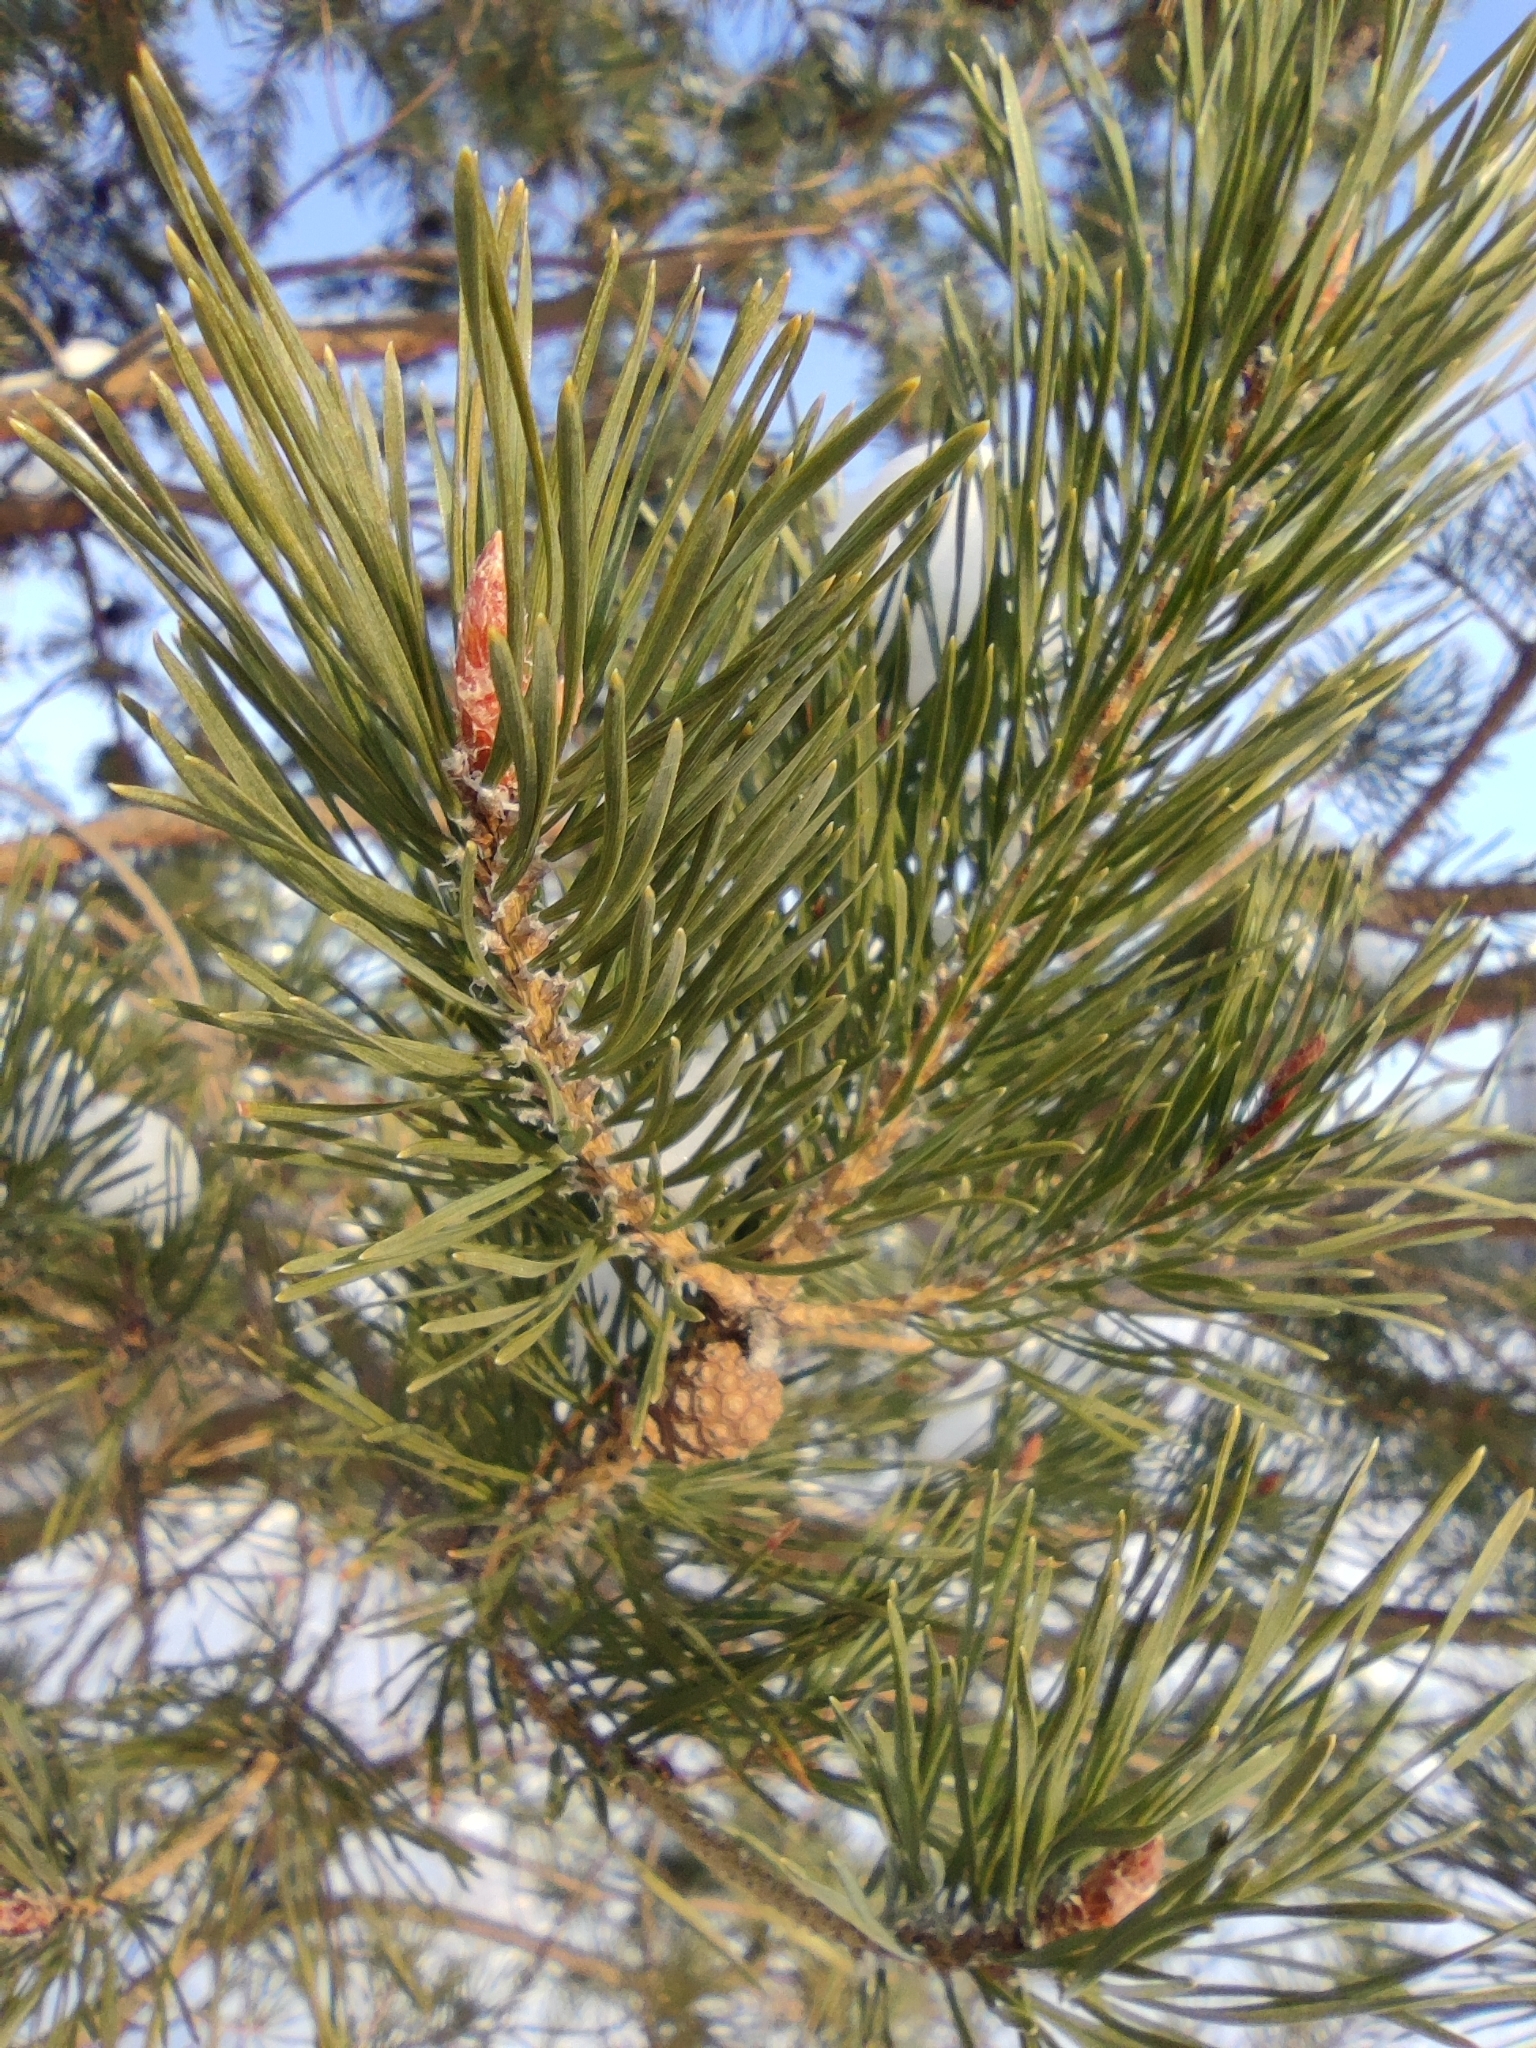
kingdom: Plantae
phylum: Tracheophyta
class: Pinopsida
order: Pinales
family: Pinaceae
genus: Pinus
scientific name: Pinus sylvestris
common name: Scots pine
